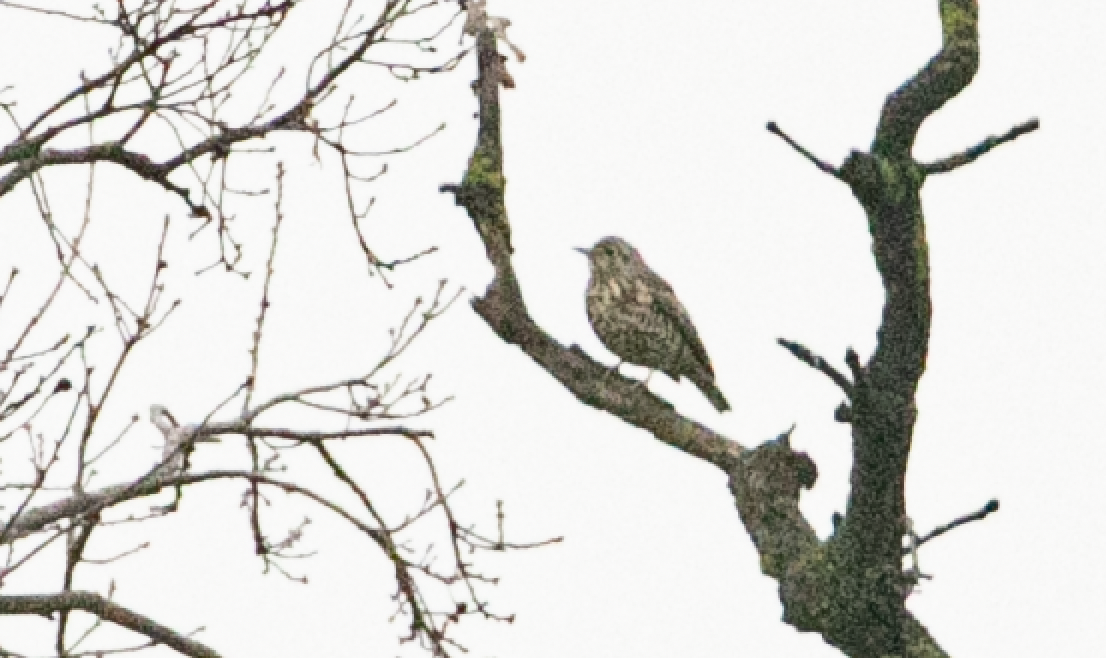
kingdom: Animalia
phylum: Chordata
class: Aves
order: Passeriformes
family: Turdidae
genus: Turdus
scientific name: Turdus viscivorus
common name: Mistle thrush
